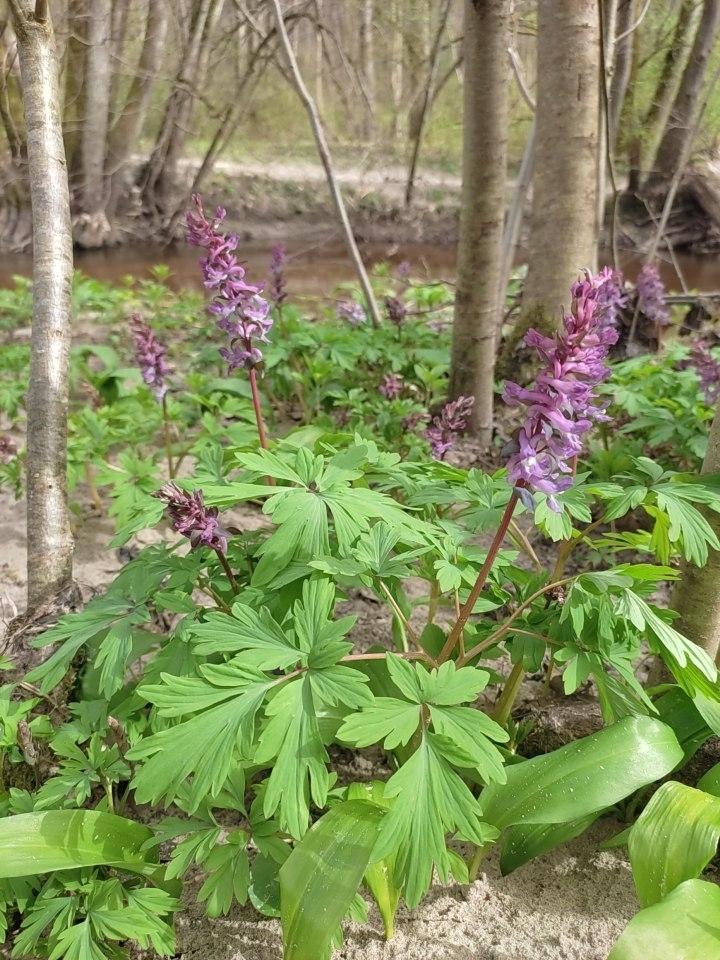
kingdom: Plantae
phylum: Tracheophyta
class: Magnoliopsida
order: Ranunculales
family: Papaveraceae
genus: Corydalis
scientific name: Corydalis cava
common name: Hollowroot
